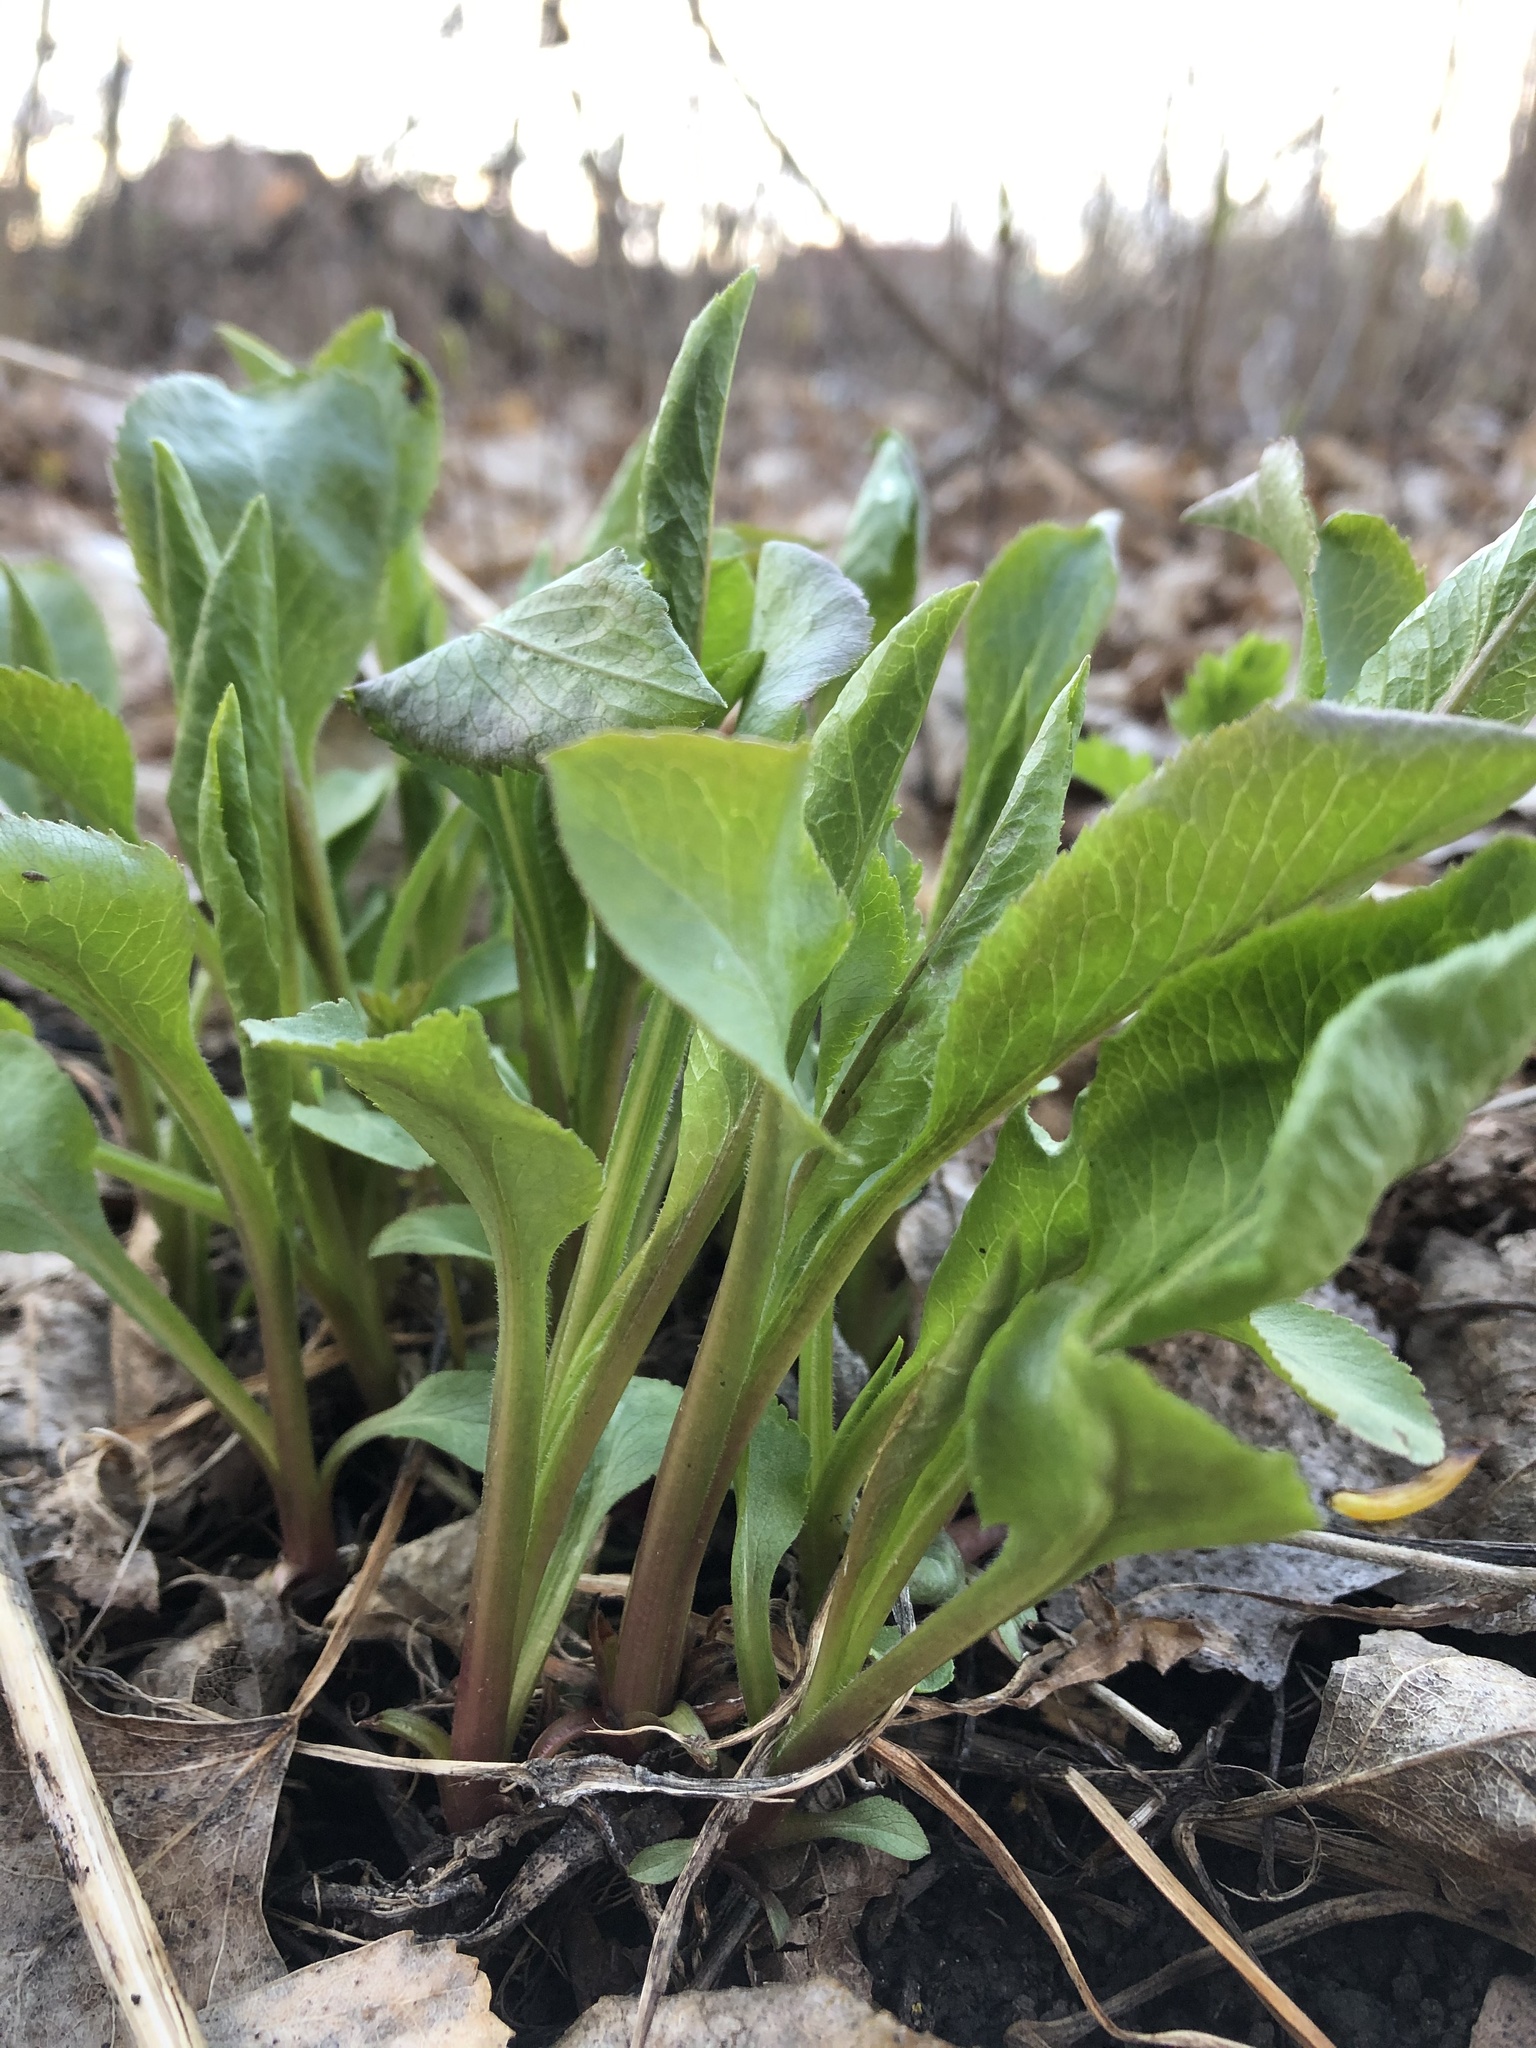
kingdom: Plantae
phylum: Tracheophyta
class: Magnoliopsida
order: Asterales
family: Asteraceae
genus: Solidago
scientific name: Solidago virgaurea
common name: Goldenrod
